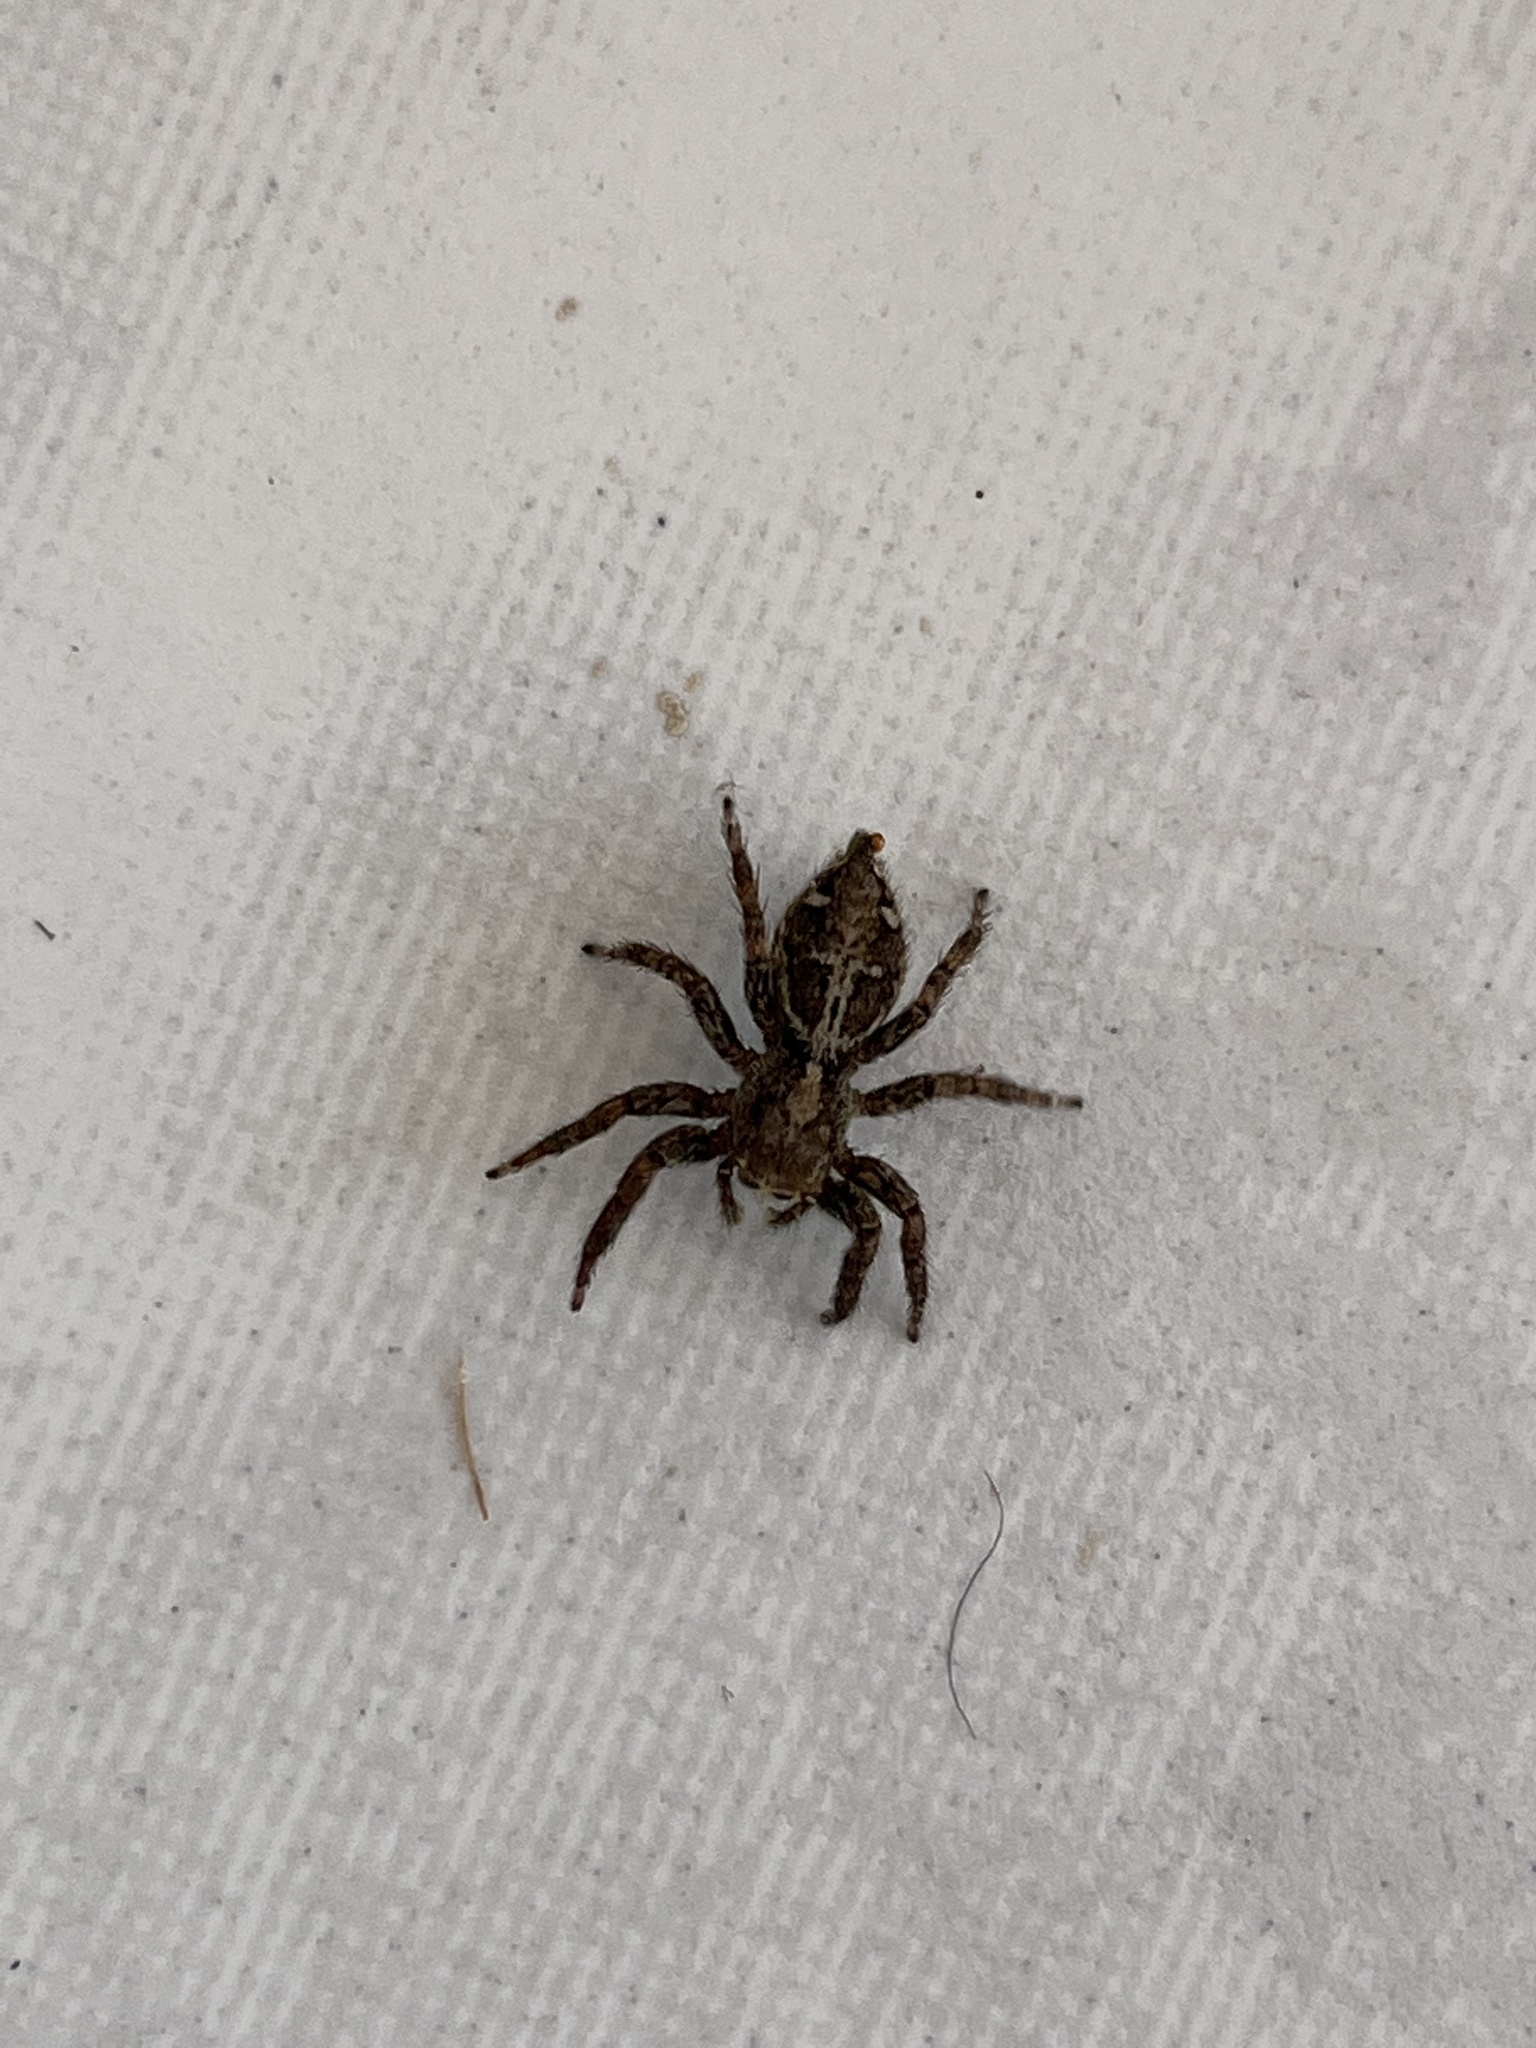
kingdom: Animalia
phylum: Arthropoda
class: Arachnida
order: Araneae
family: Salticidae
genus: Plexippus
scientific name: Plexippus paykulli
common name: Pantropical jumper
